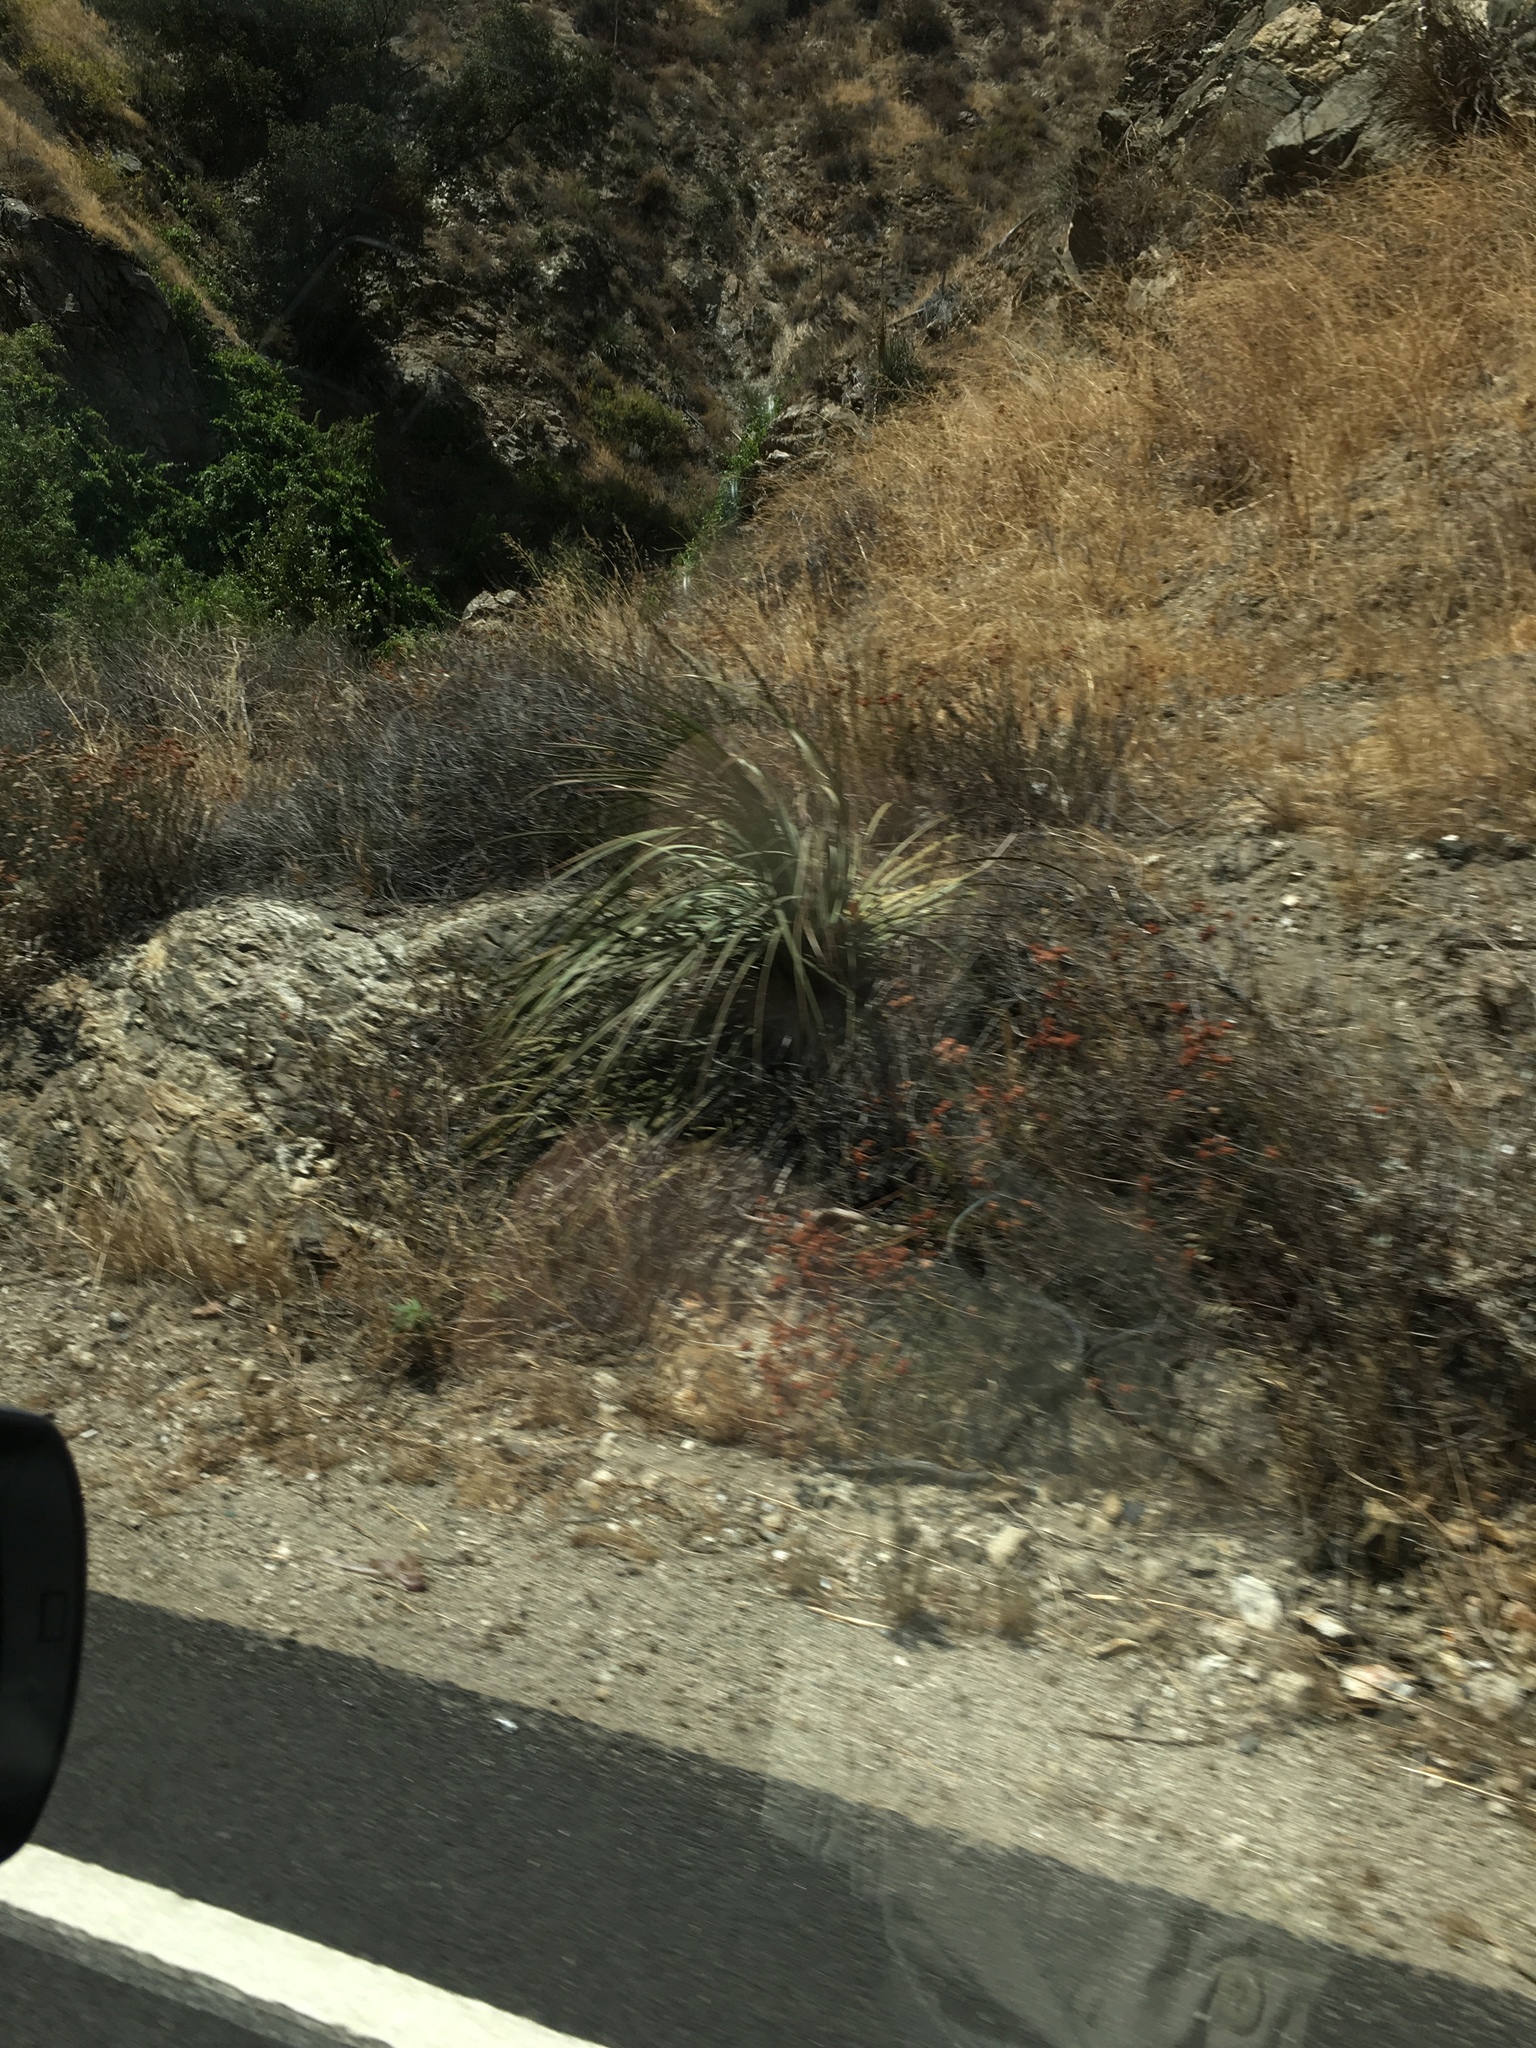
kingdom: Plantae
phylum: Tracheophyta
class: Liliopsida
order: Asparagales
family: Asparagaceae
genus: Hesperoyucca
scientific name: Hesperoyucca whipplei
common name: Our lord's-candle
